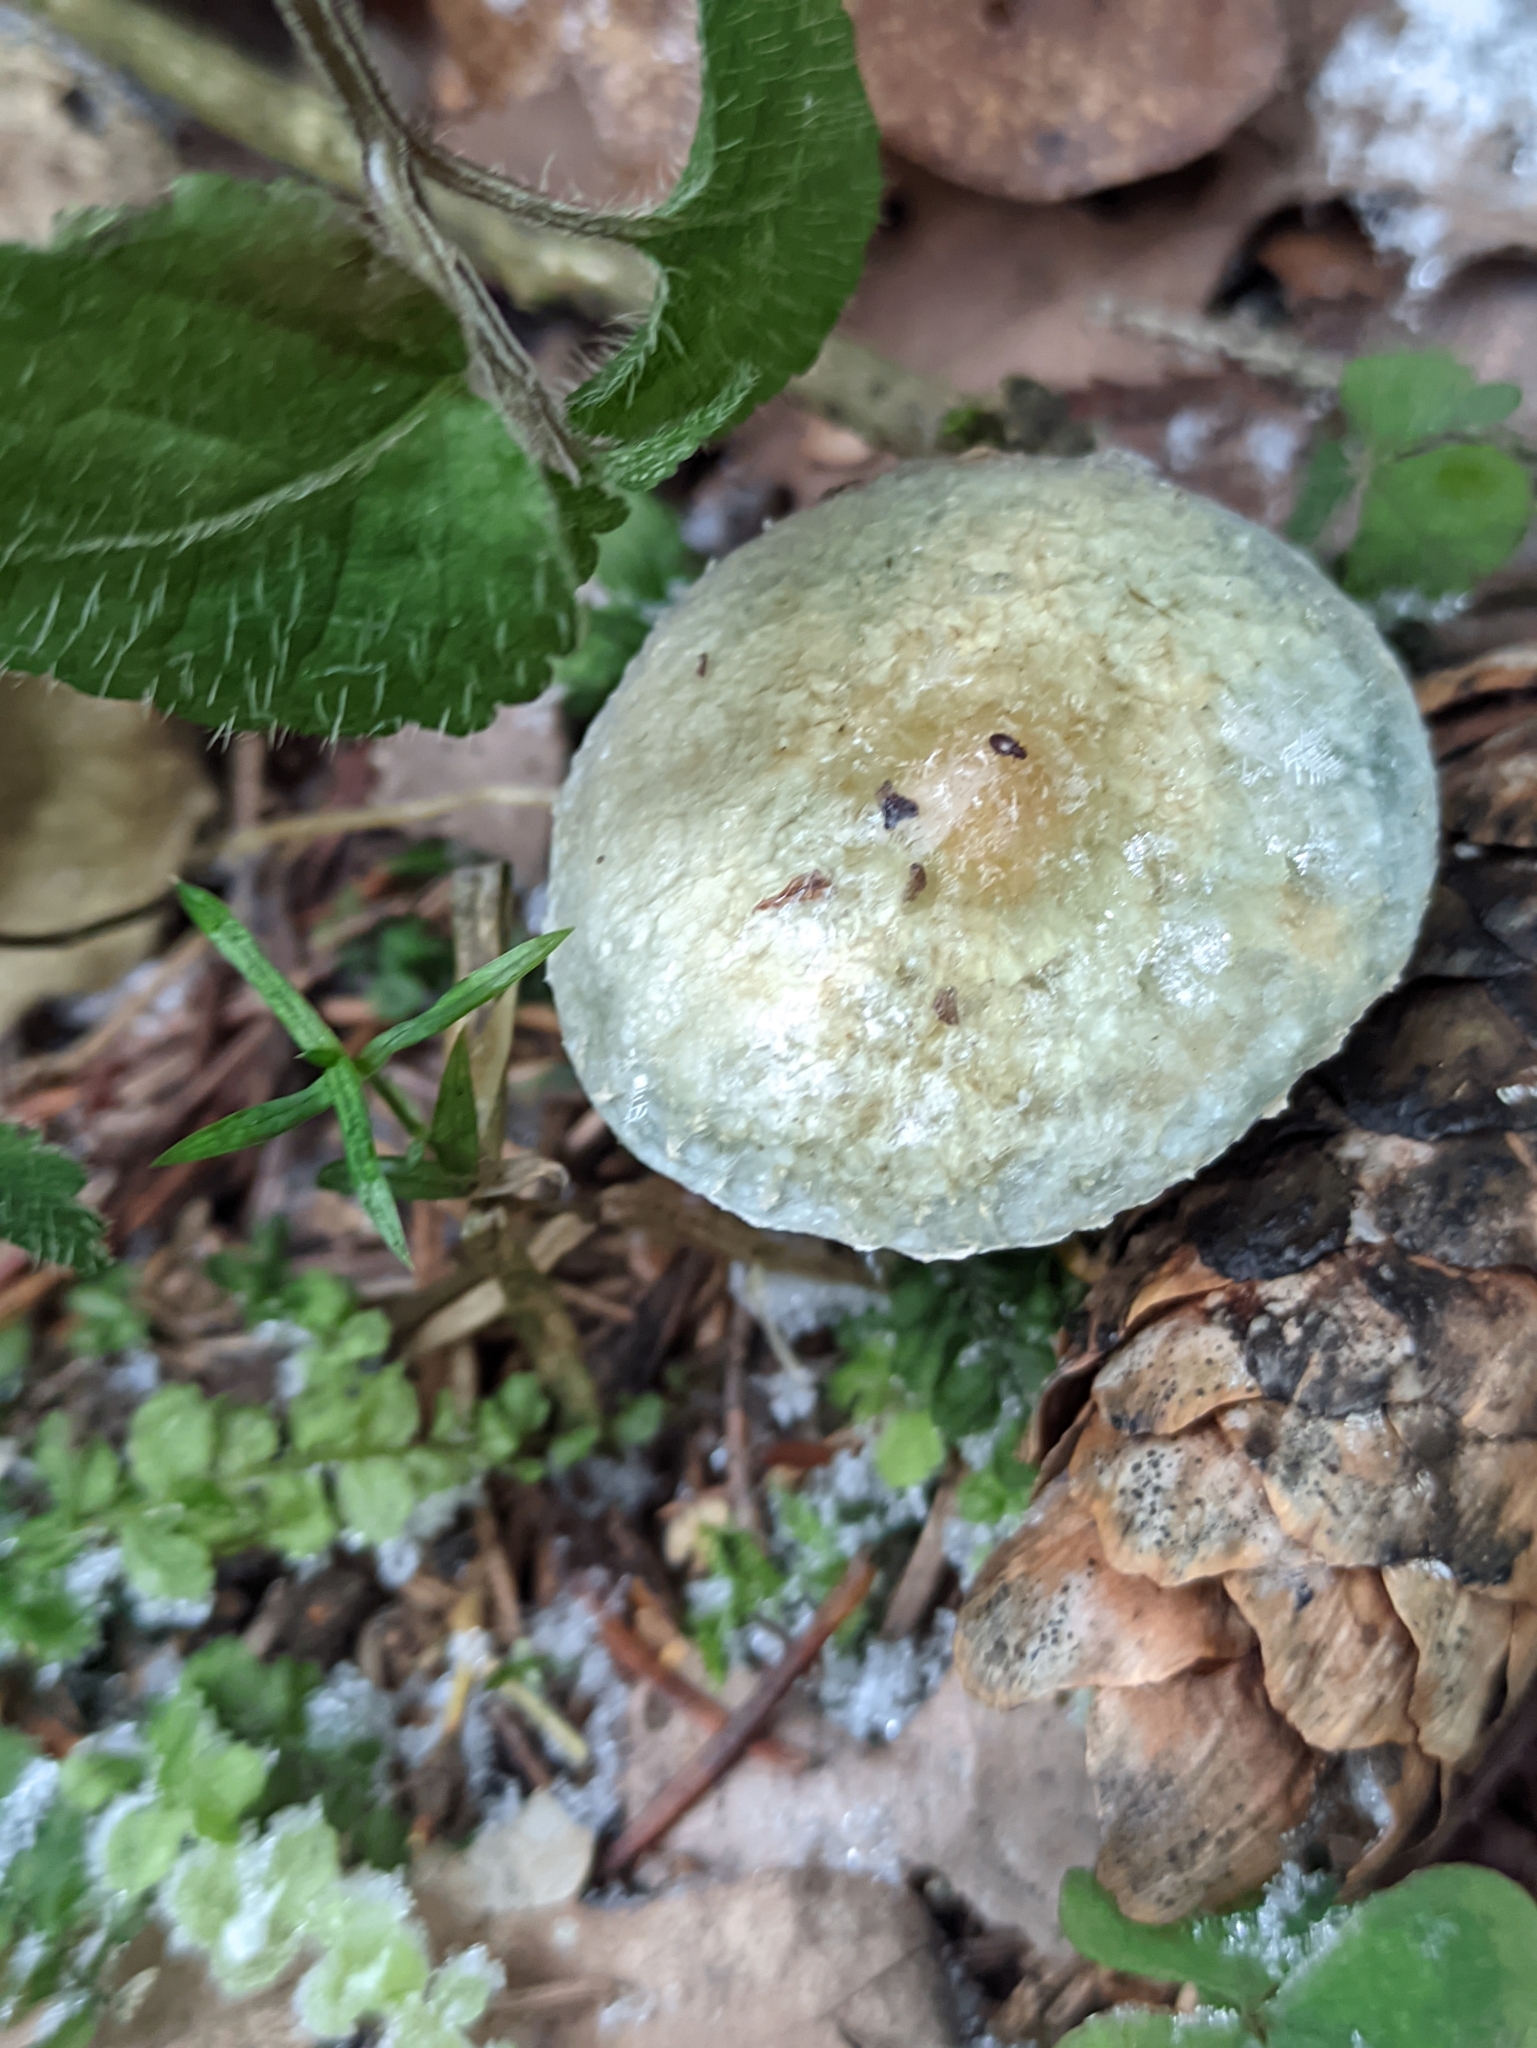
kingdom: Fungi
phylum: Basidiomycota
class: Agaricomycetes
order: Agaricales
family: Strophariaceae
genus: Stropharia
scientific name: Stropharia aeruginosa
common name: Verdigris roundhead
